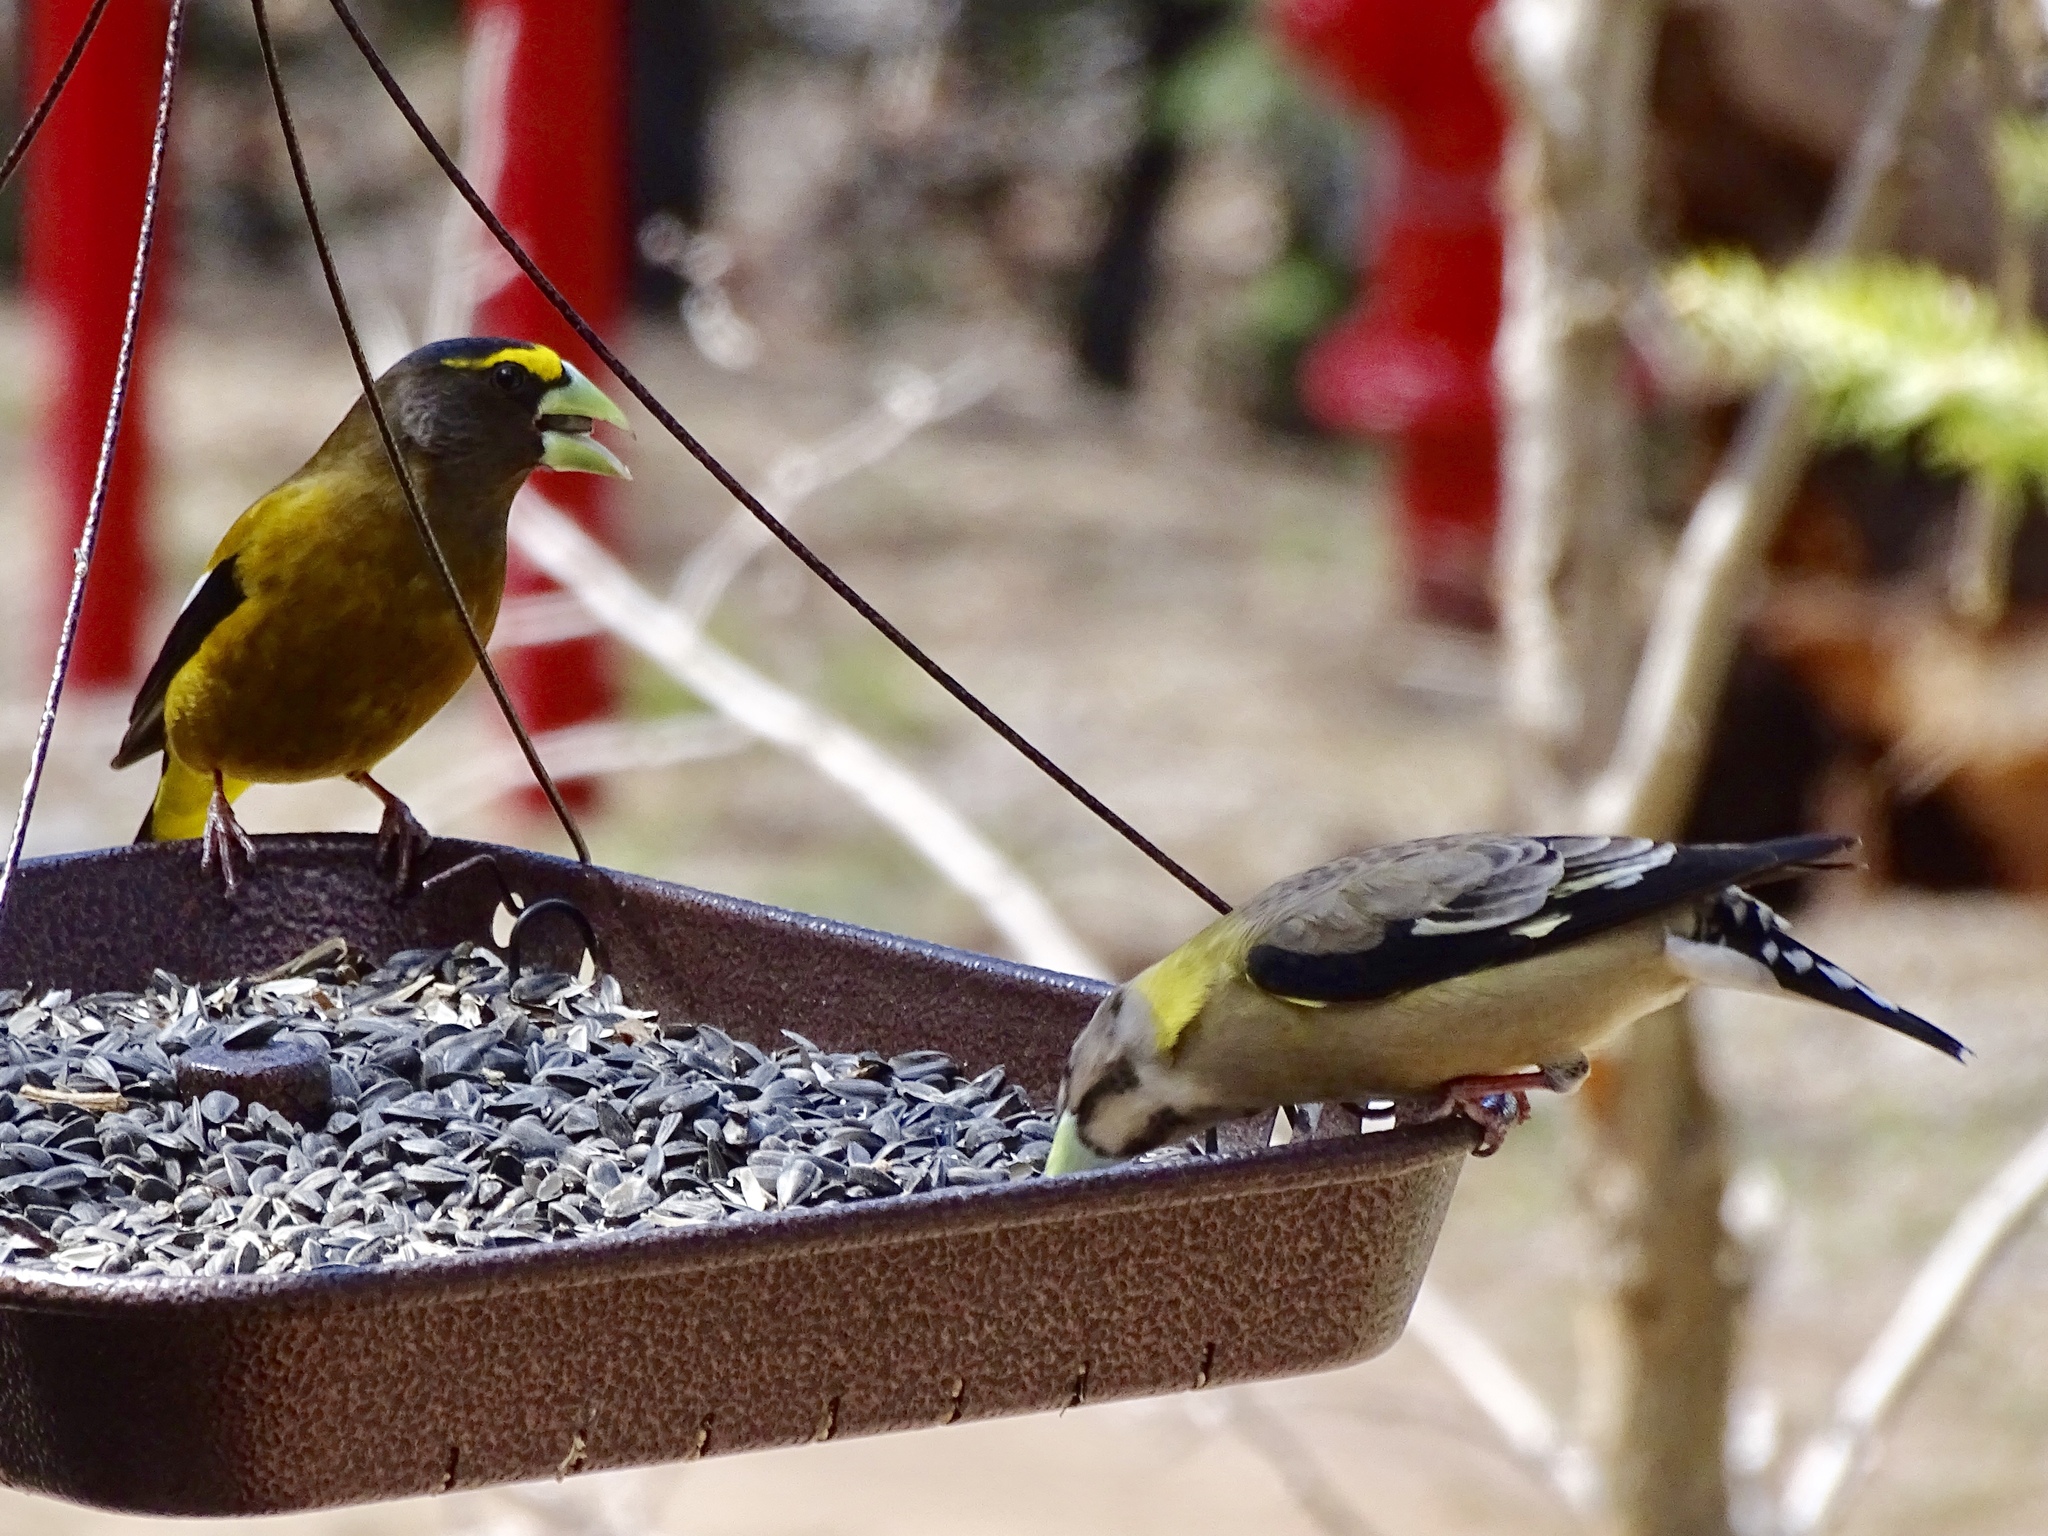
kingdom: Animalia
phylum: Chordata
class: Aves
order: Passeriformes
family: Fringillidae
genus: Hesperiphona
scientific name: Hesperiphona vespertina
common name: Evening grosbeak
